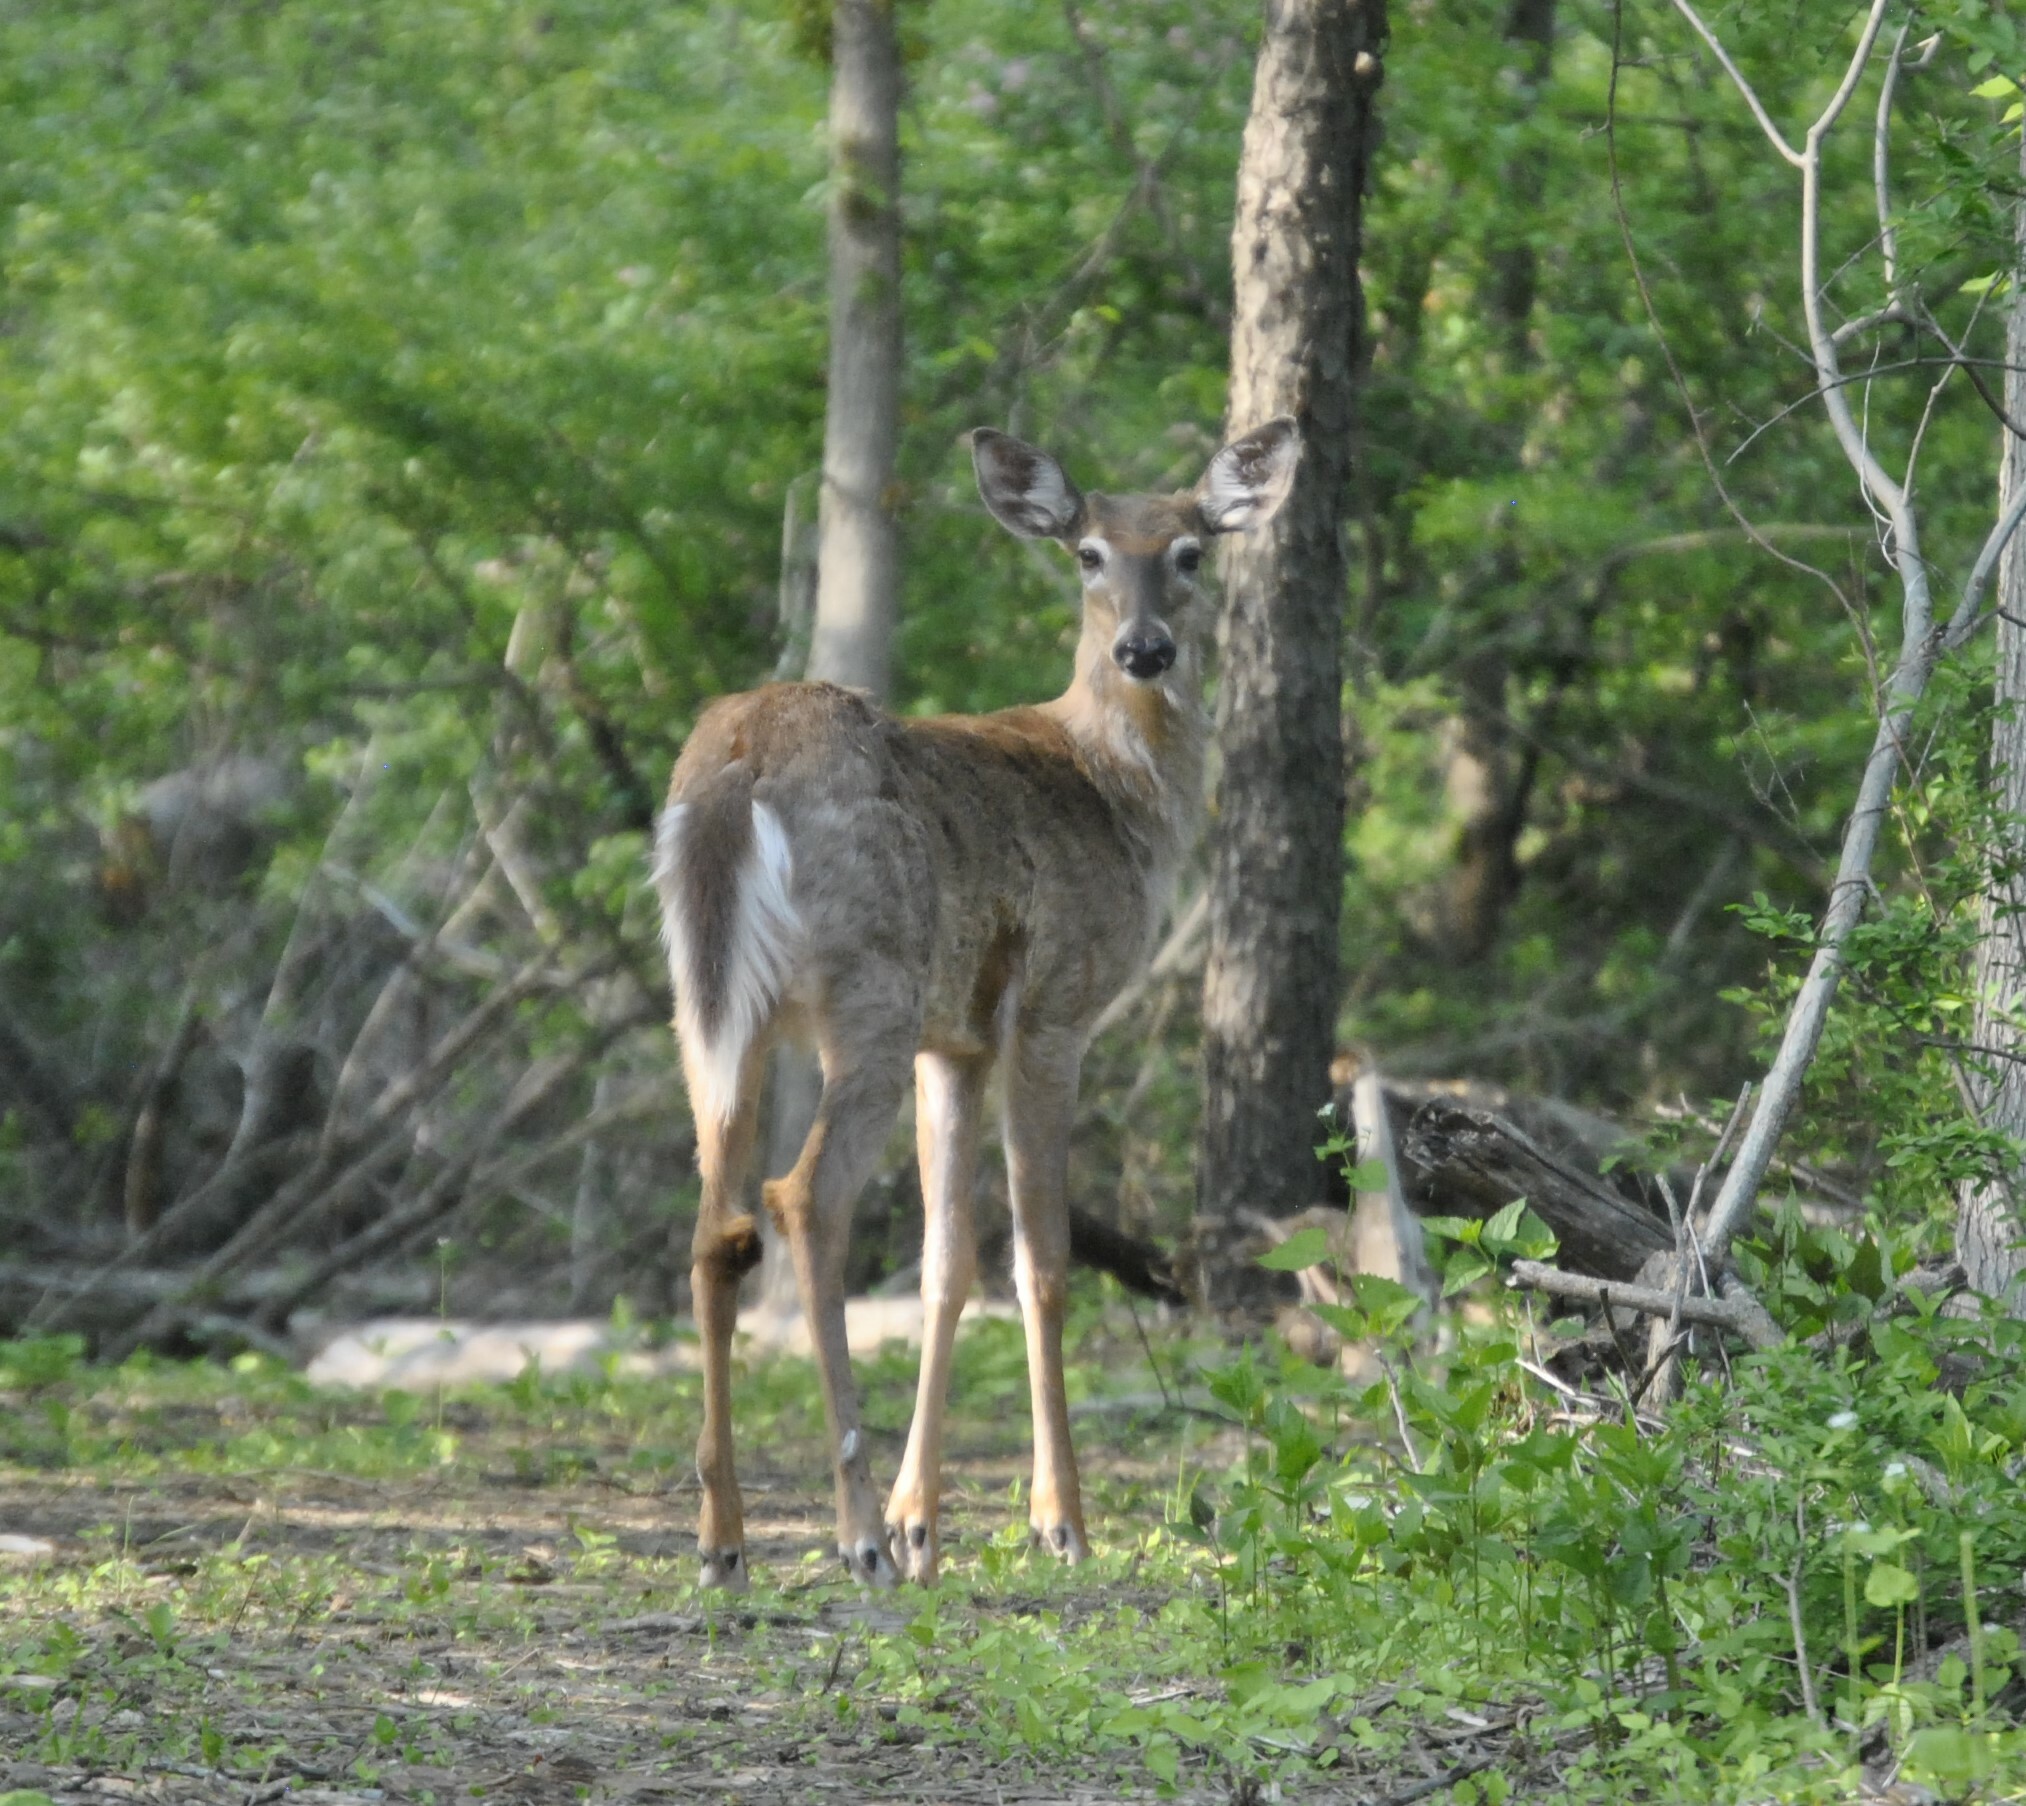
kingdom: Animalia
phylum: Chordata
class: Mammalia
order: Artiodactyla
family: Cervidae
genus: Odocoileus
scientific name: Odocoileus virginianus
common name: White-tailed deer
